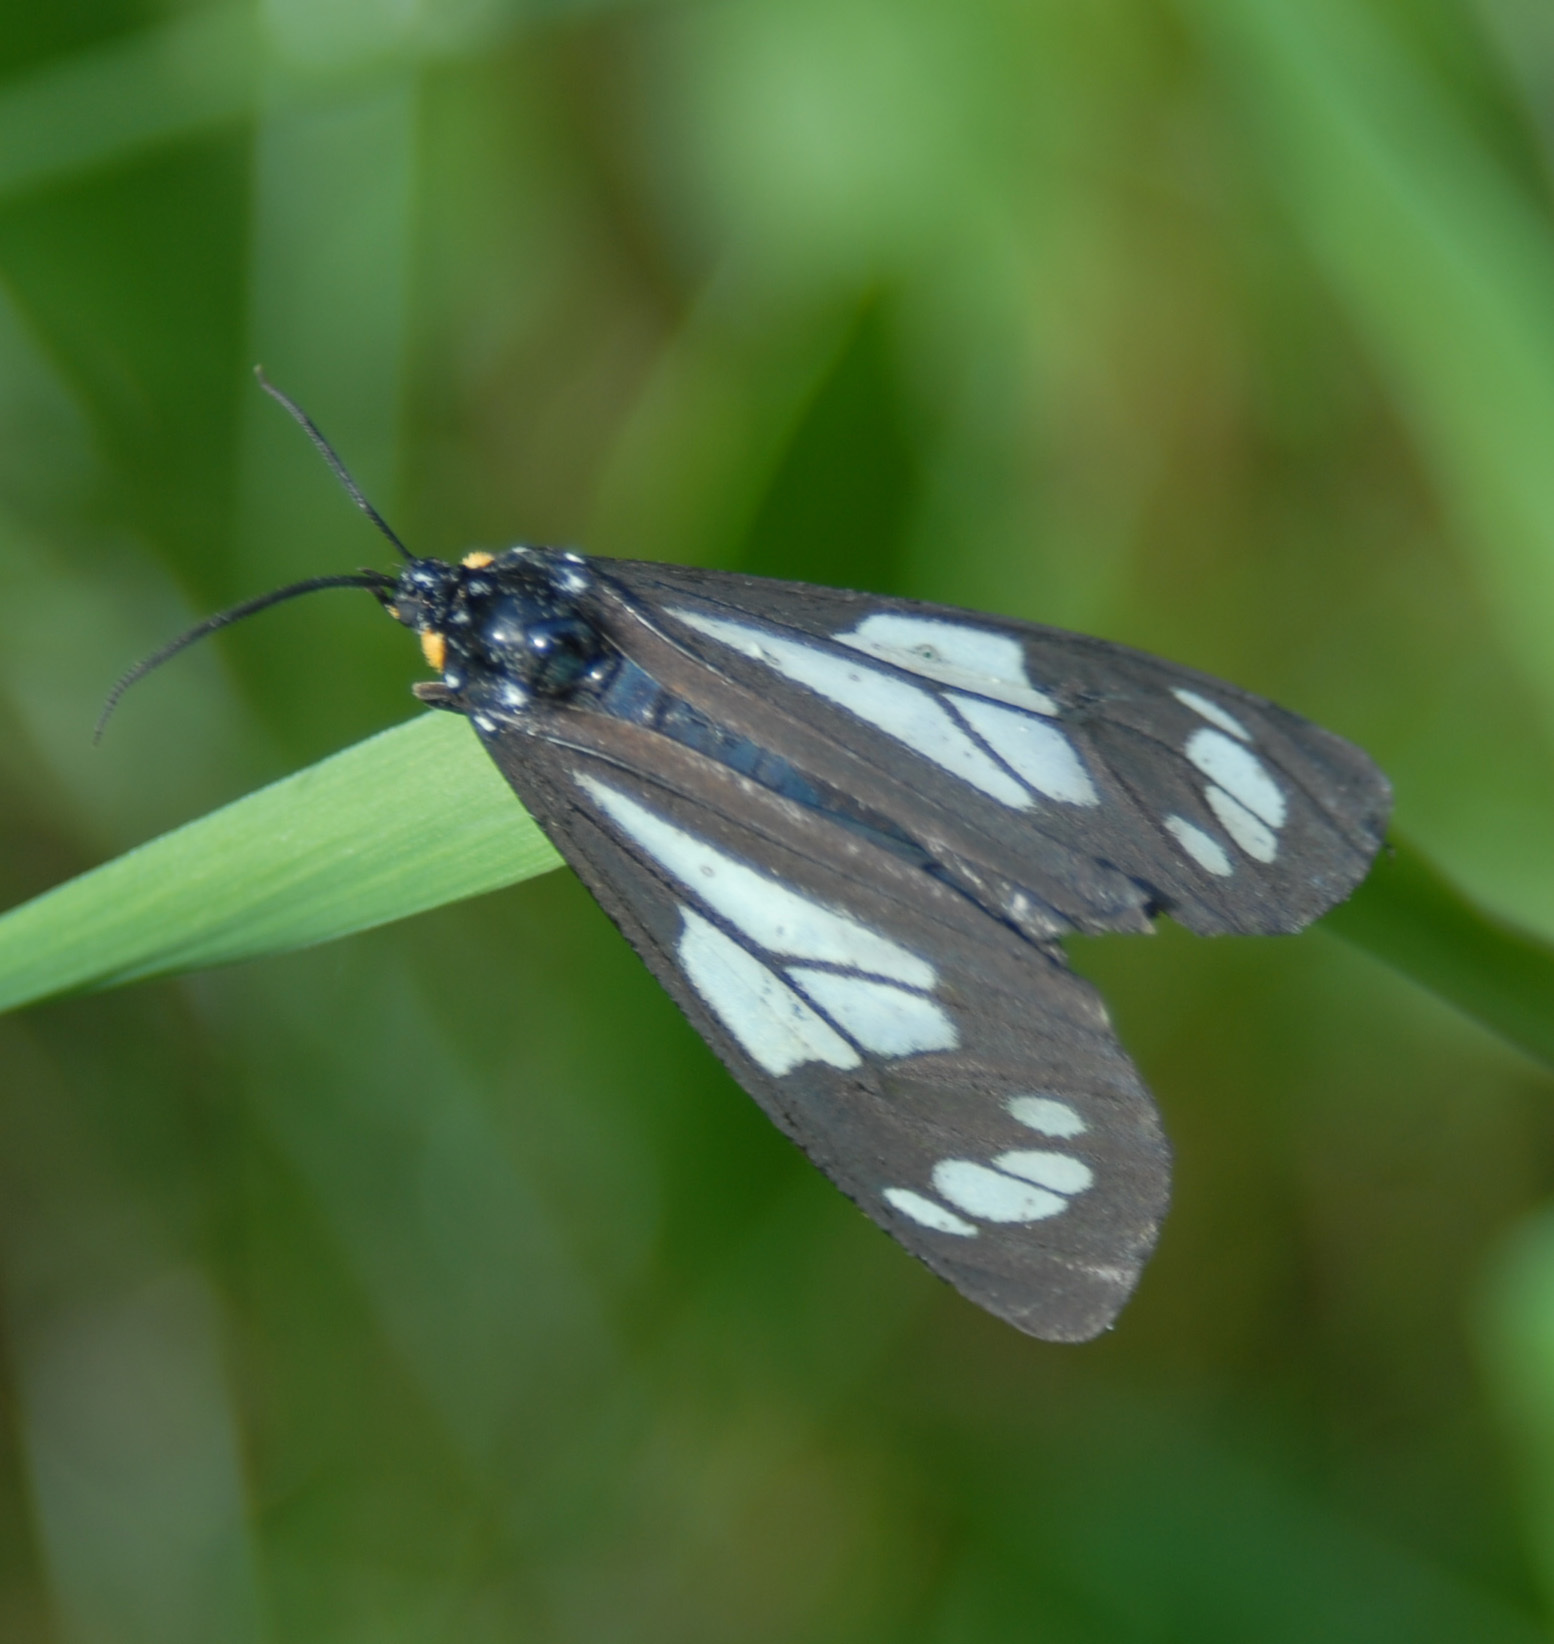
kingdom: Animalia
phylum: Arthropoda
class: Insecta
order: Lepidoptera
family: Erebidae
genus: Gnophaela
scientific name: Gnophaela vermiculata
